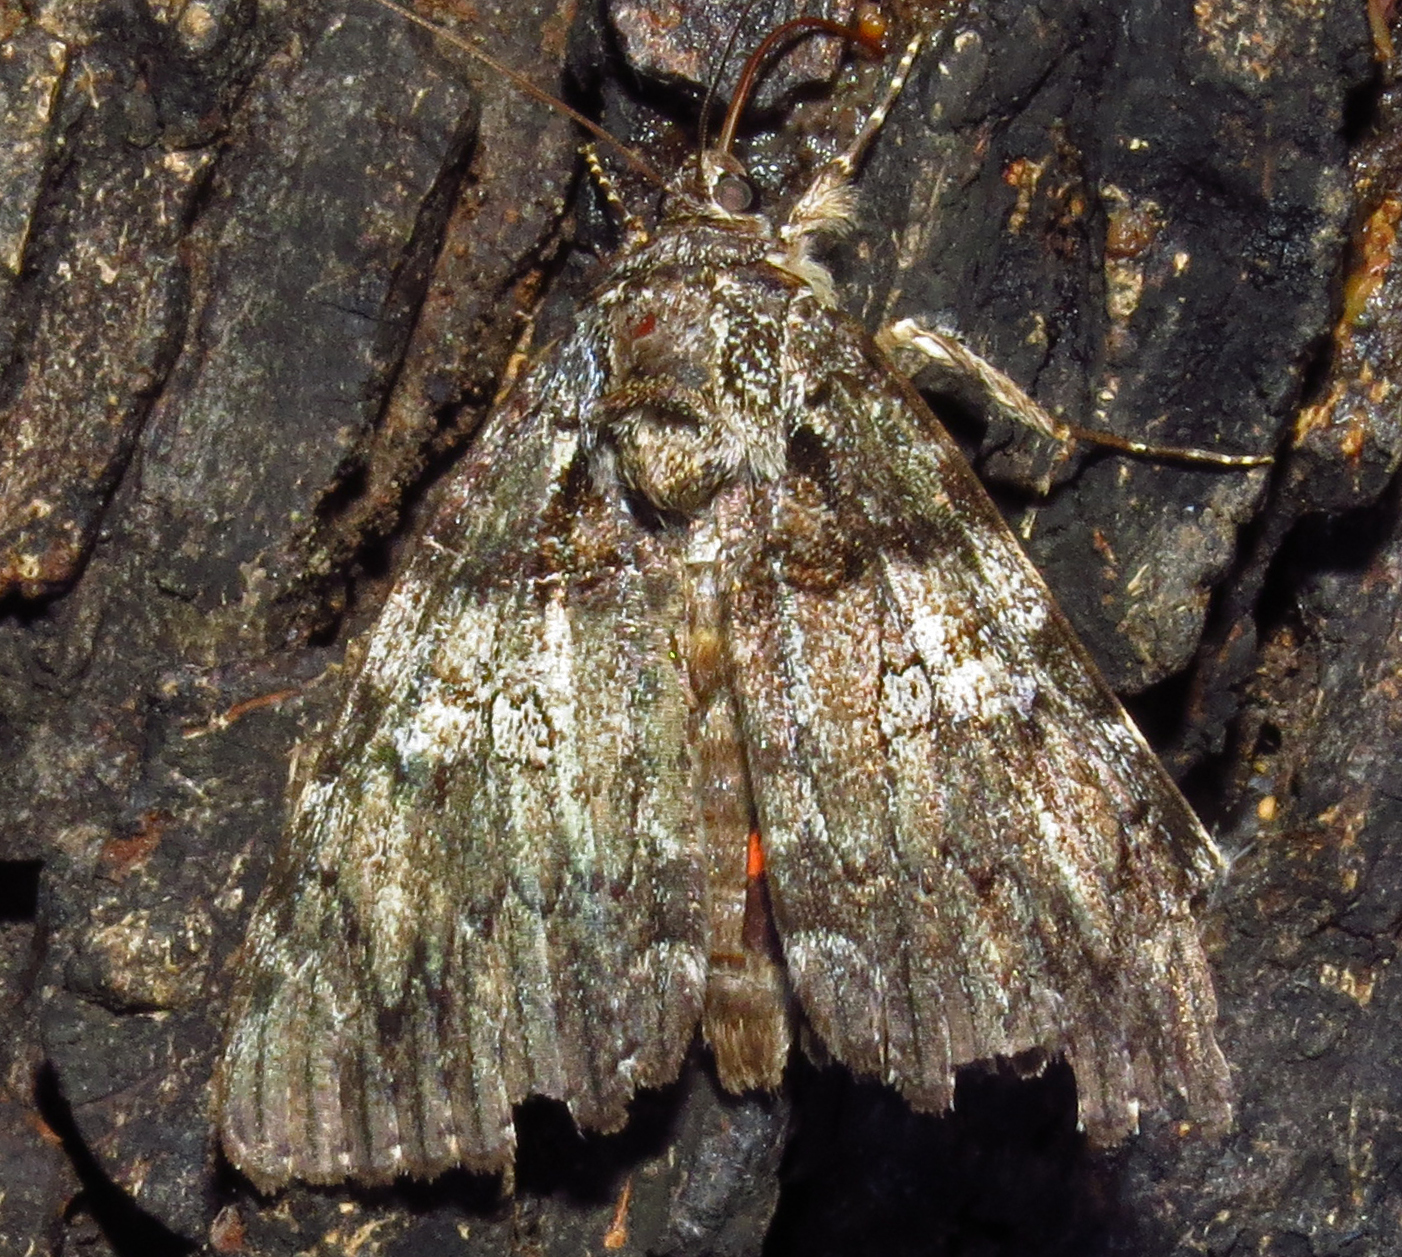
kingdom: Animalia
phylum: Arthropoda
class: Insecta
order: Lepidoptera
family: Erebidae
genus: Catocala
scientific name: Catocala ilia
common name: Ilia underwing
